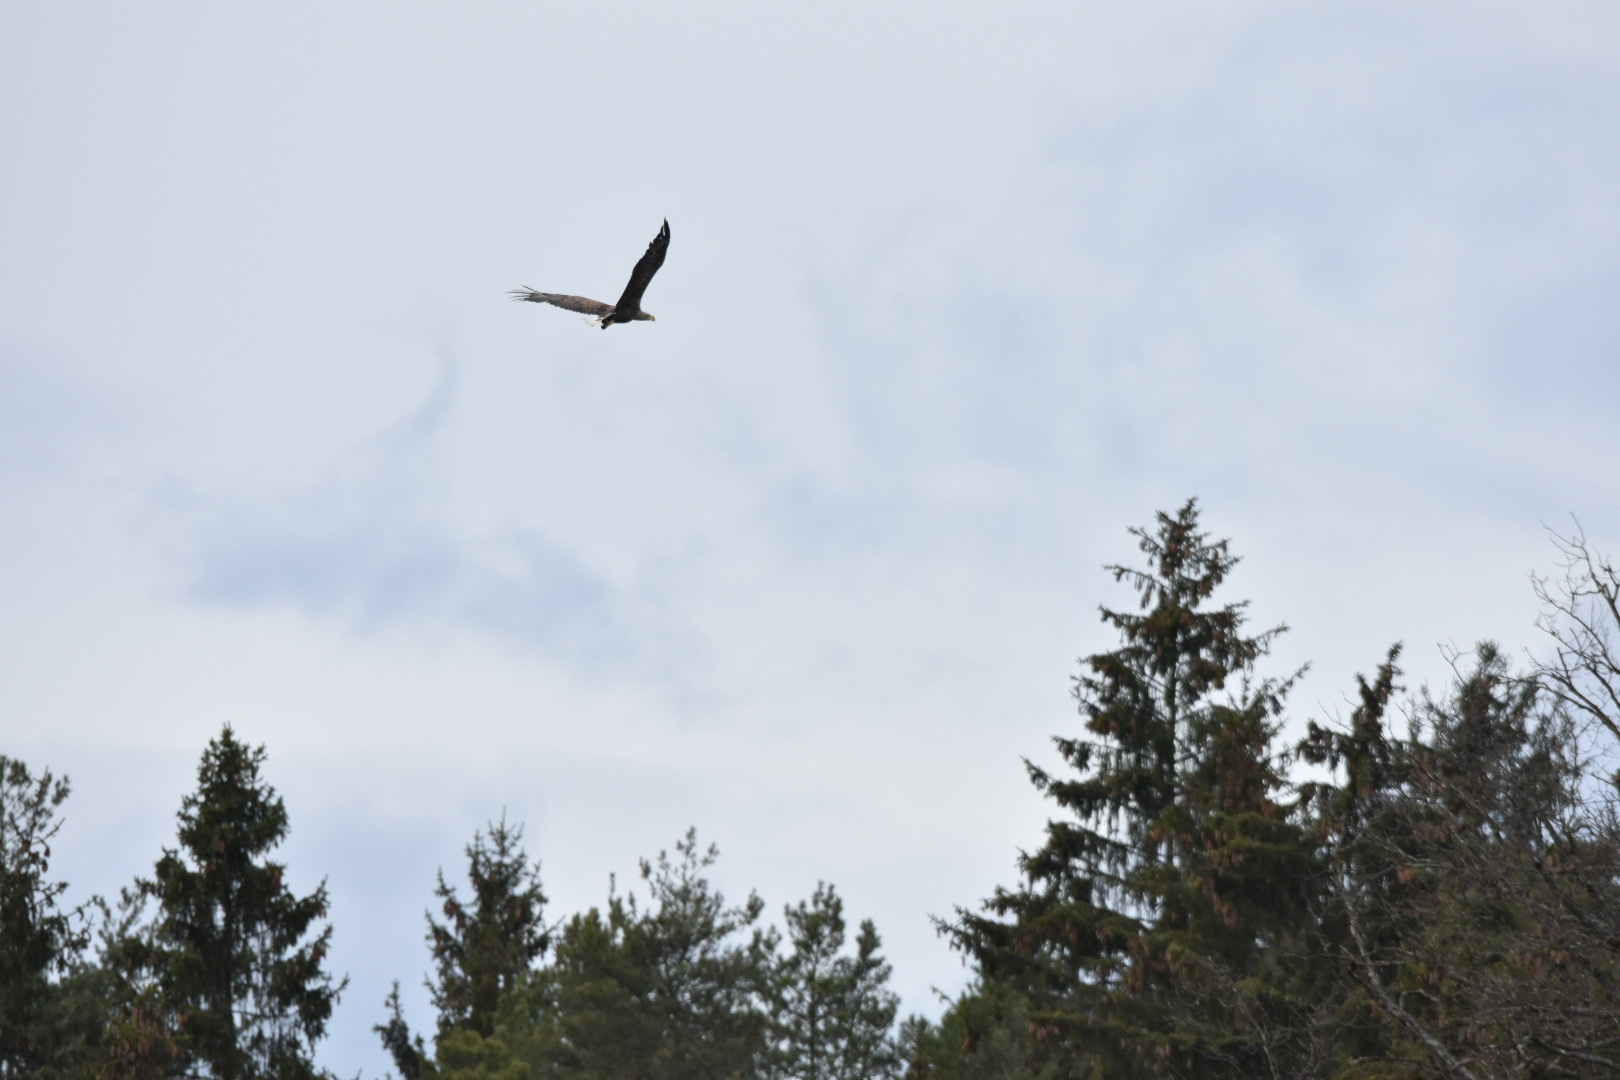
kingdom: Animalia
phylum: Chordata
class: Aves
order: Accipitriformes
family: Accipitridae
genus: Haliaeetus
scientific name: Haliaeetus albicilla
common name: White-tailed eagle
